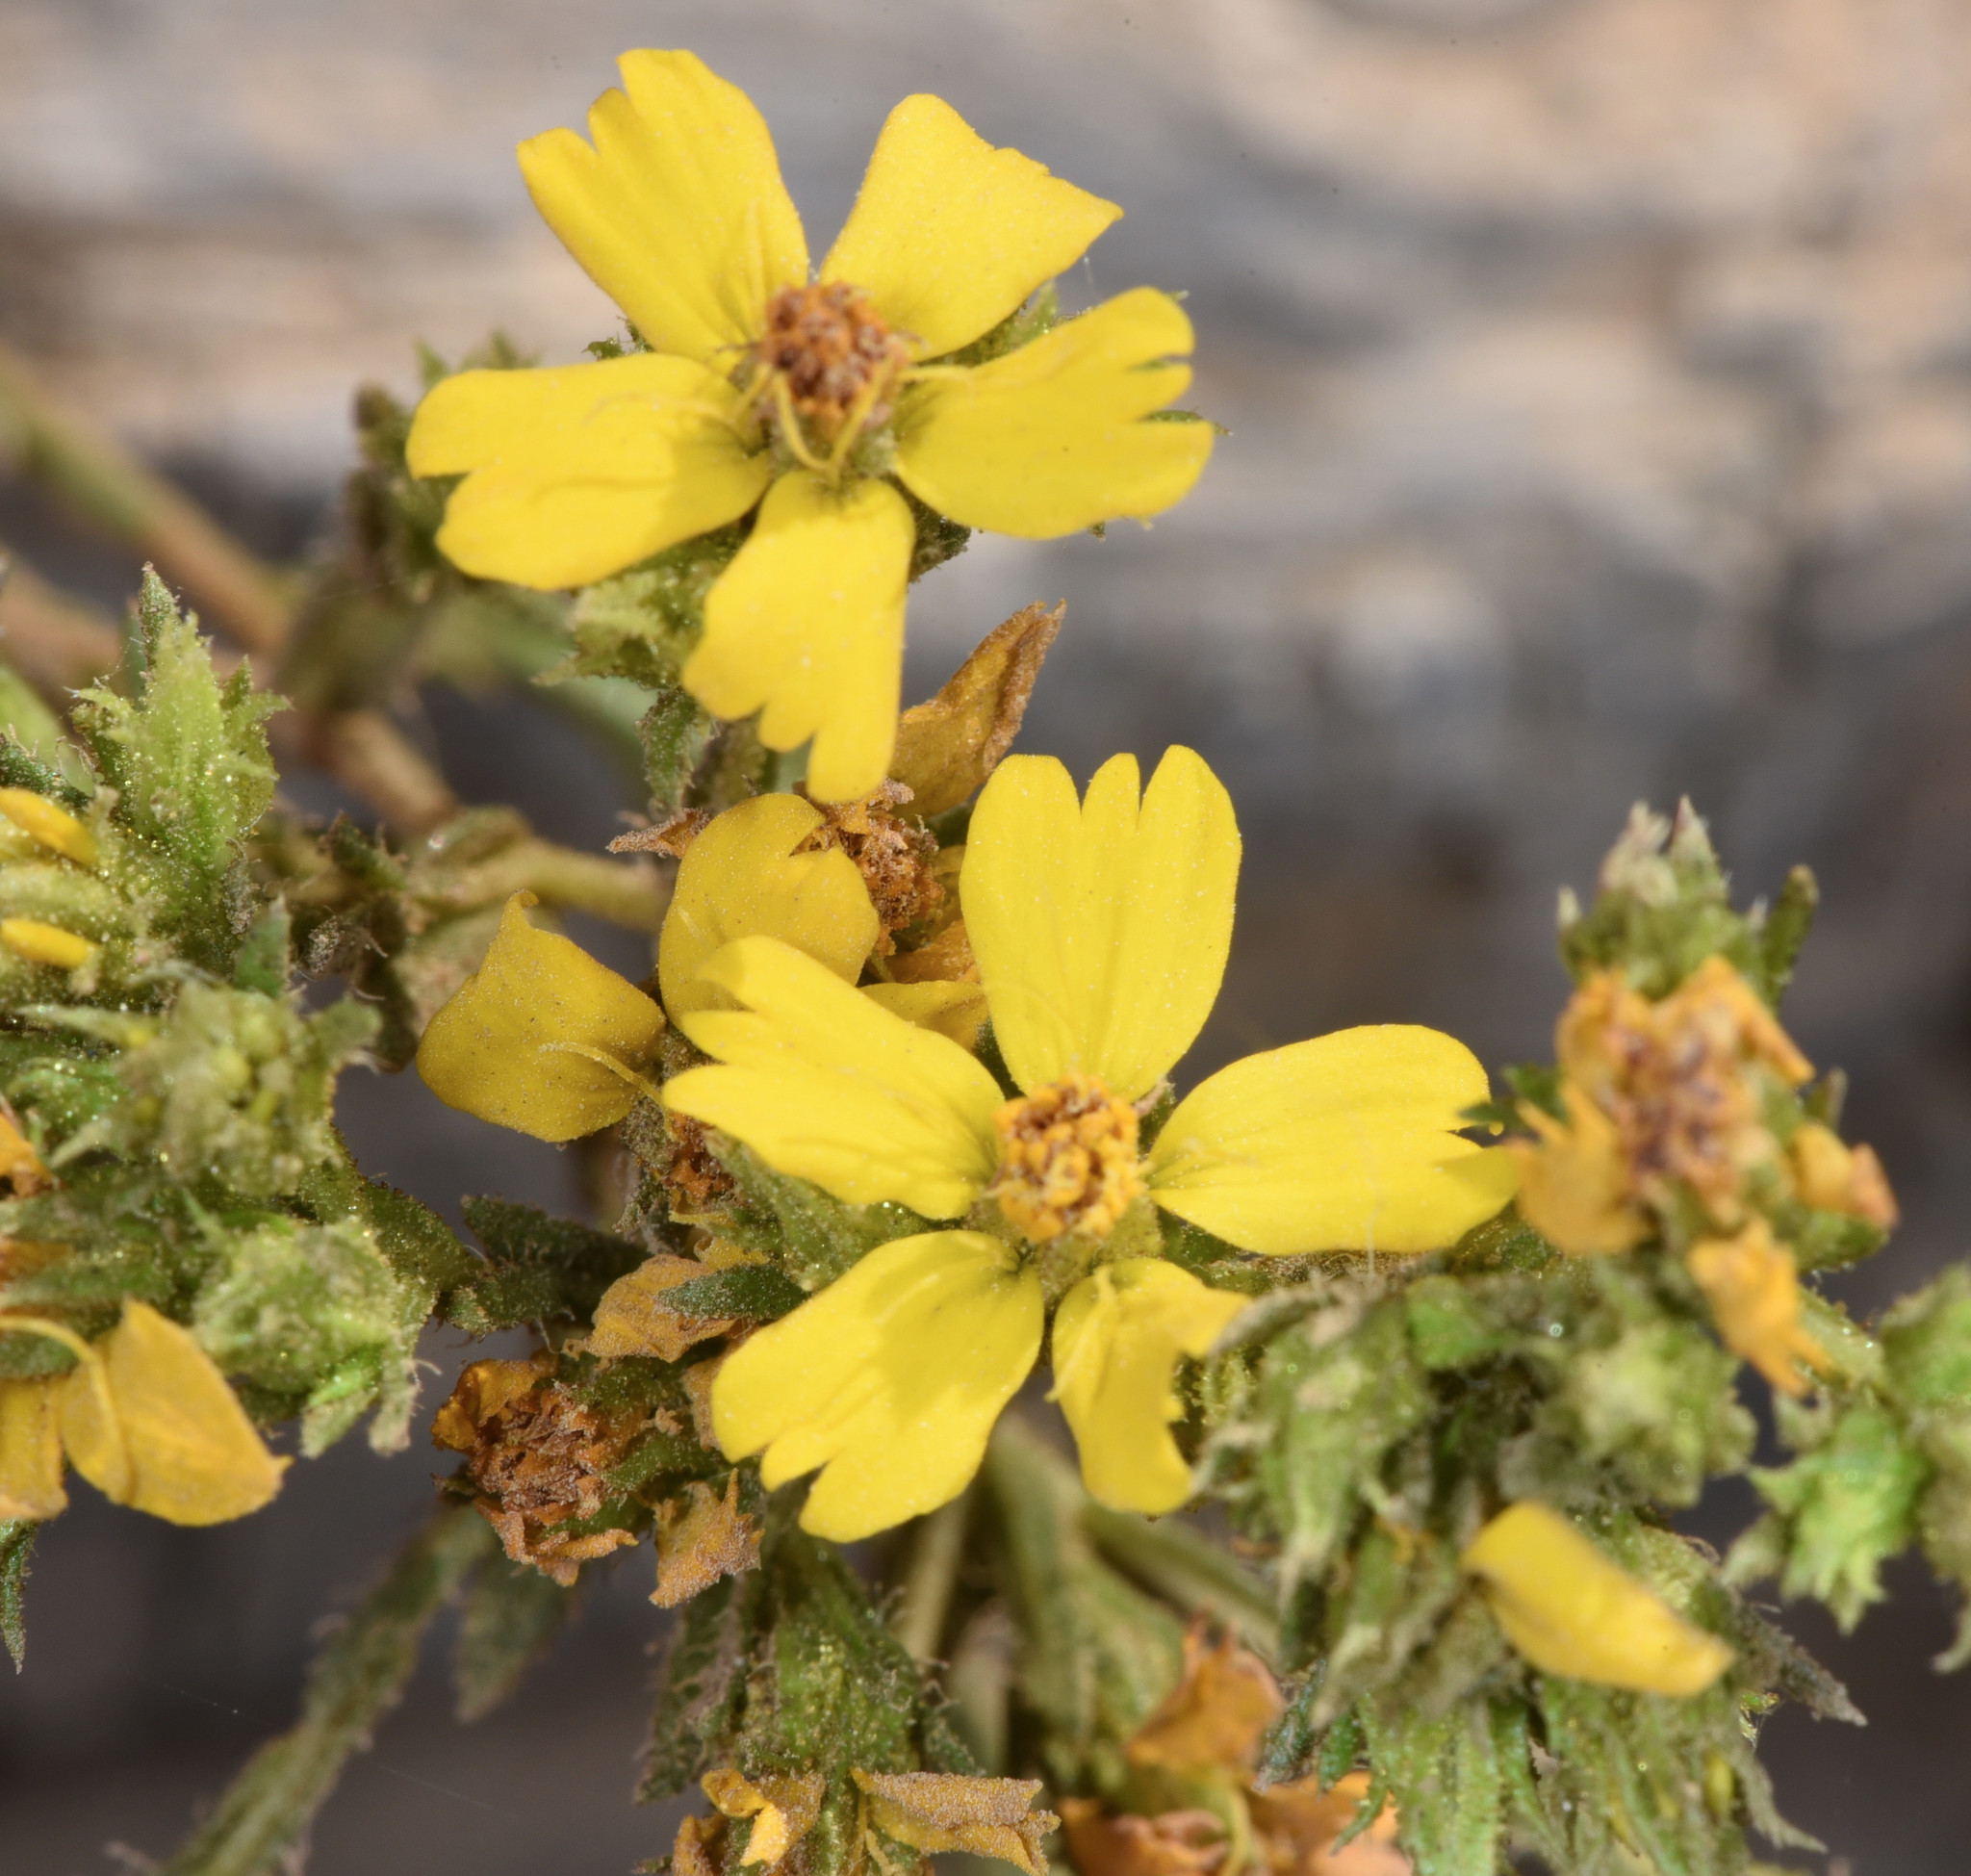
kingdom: Plantae
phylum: Tracheophyta
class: Magnoliopsida
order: Asterales
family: Asteraceae
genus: Deinandra
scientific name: Deinandra fasciculata
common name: Clustered tarweed
